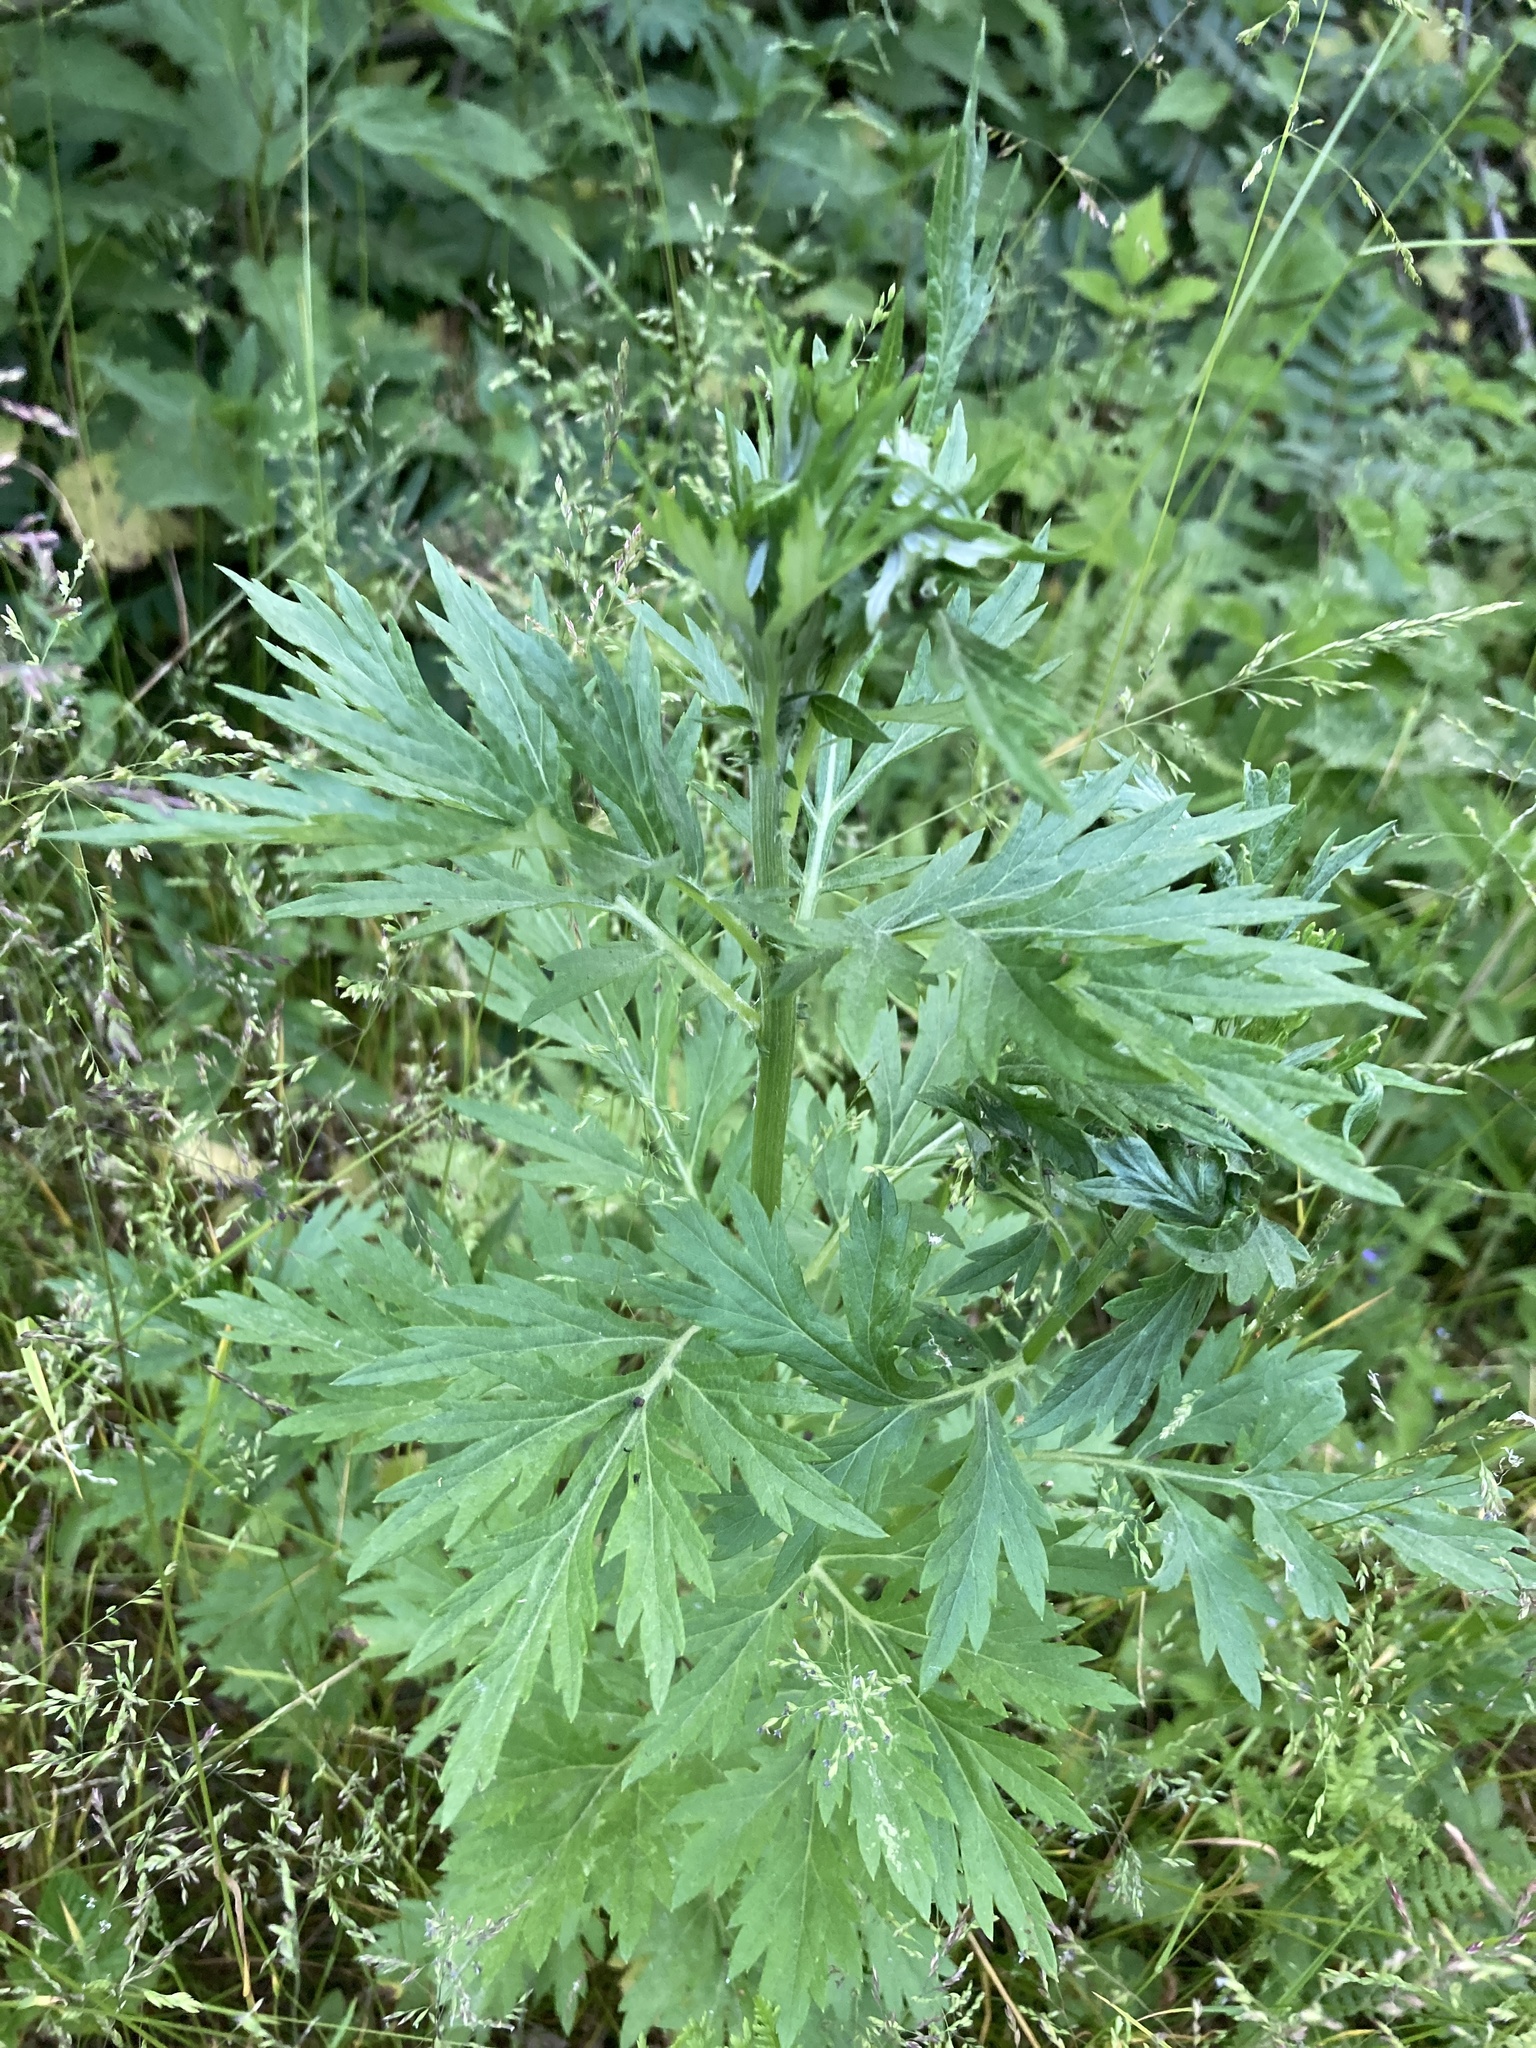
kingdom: Plantae
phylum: Tracheophyta
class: Magnoliopsida
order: Asterales
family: Asteraceae
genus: Artemisia
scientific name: Artemisia vulgaris
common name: Mugwort
